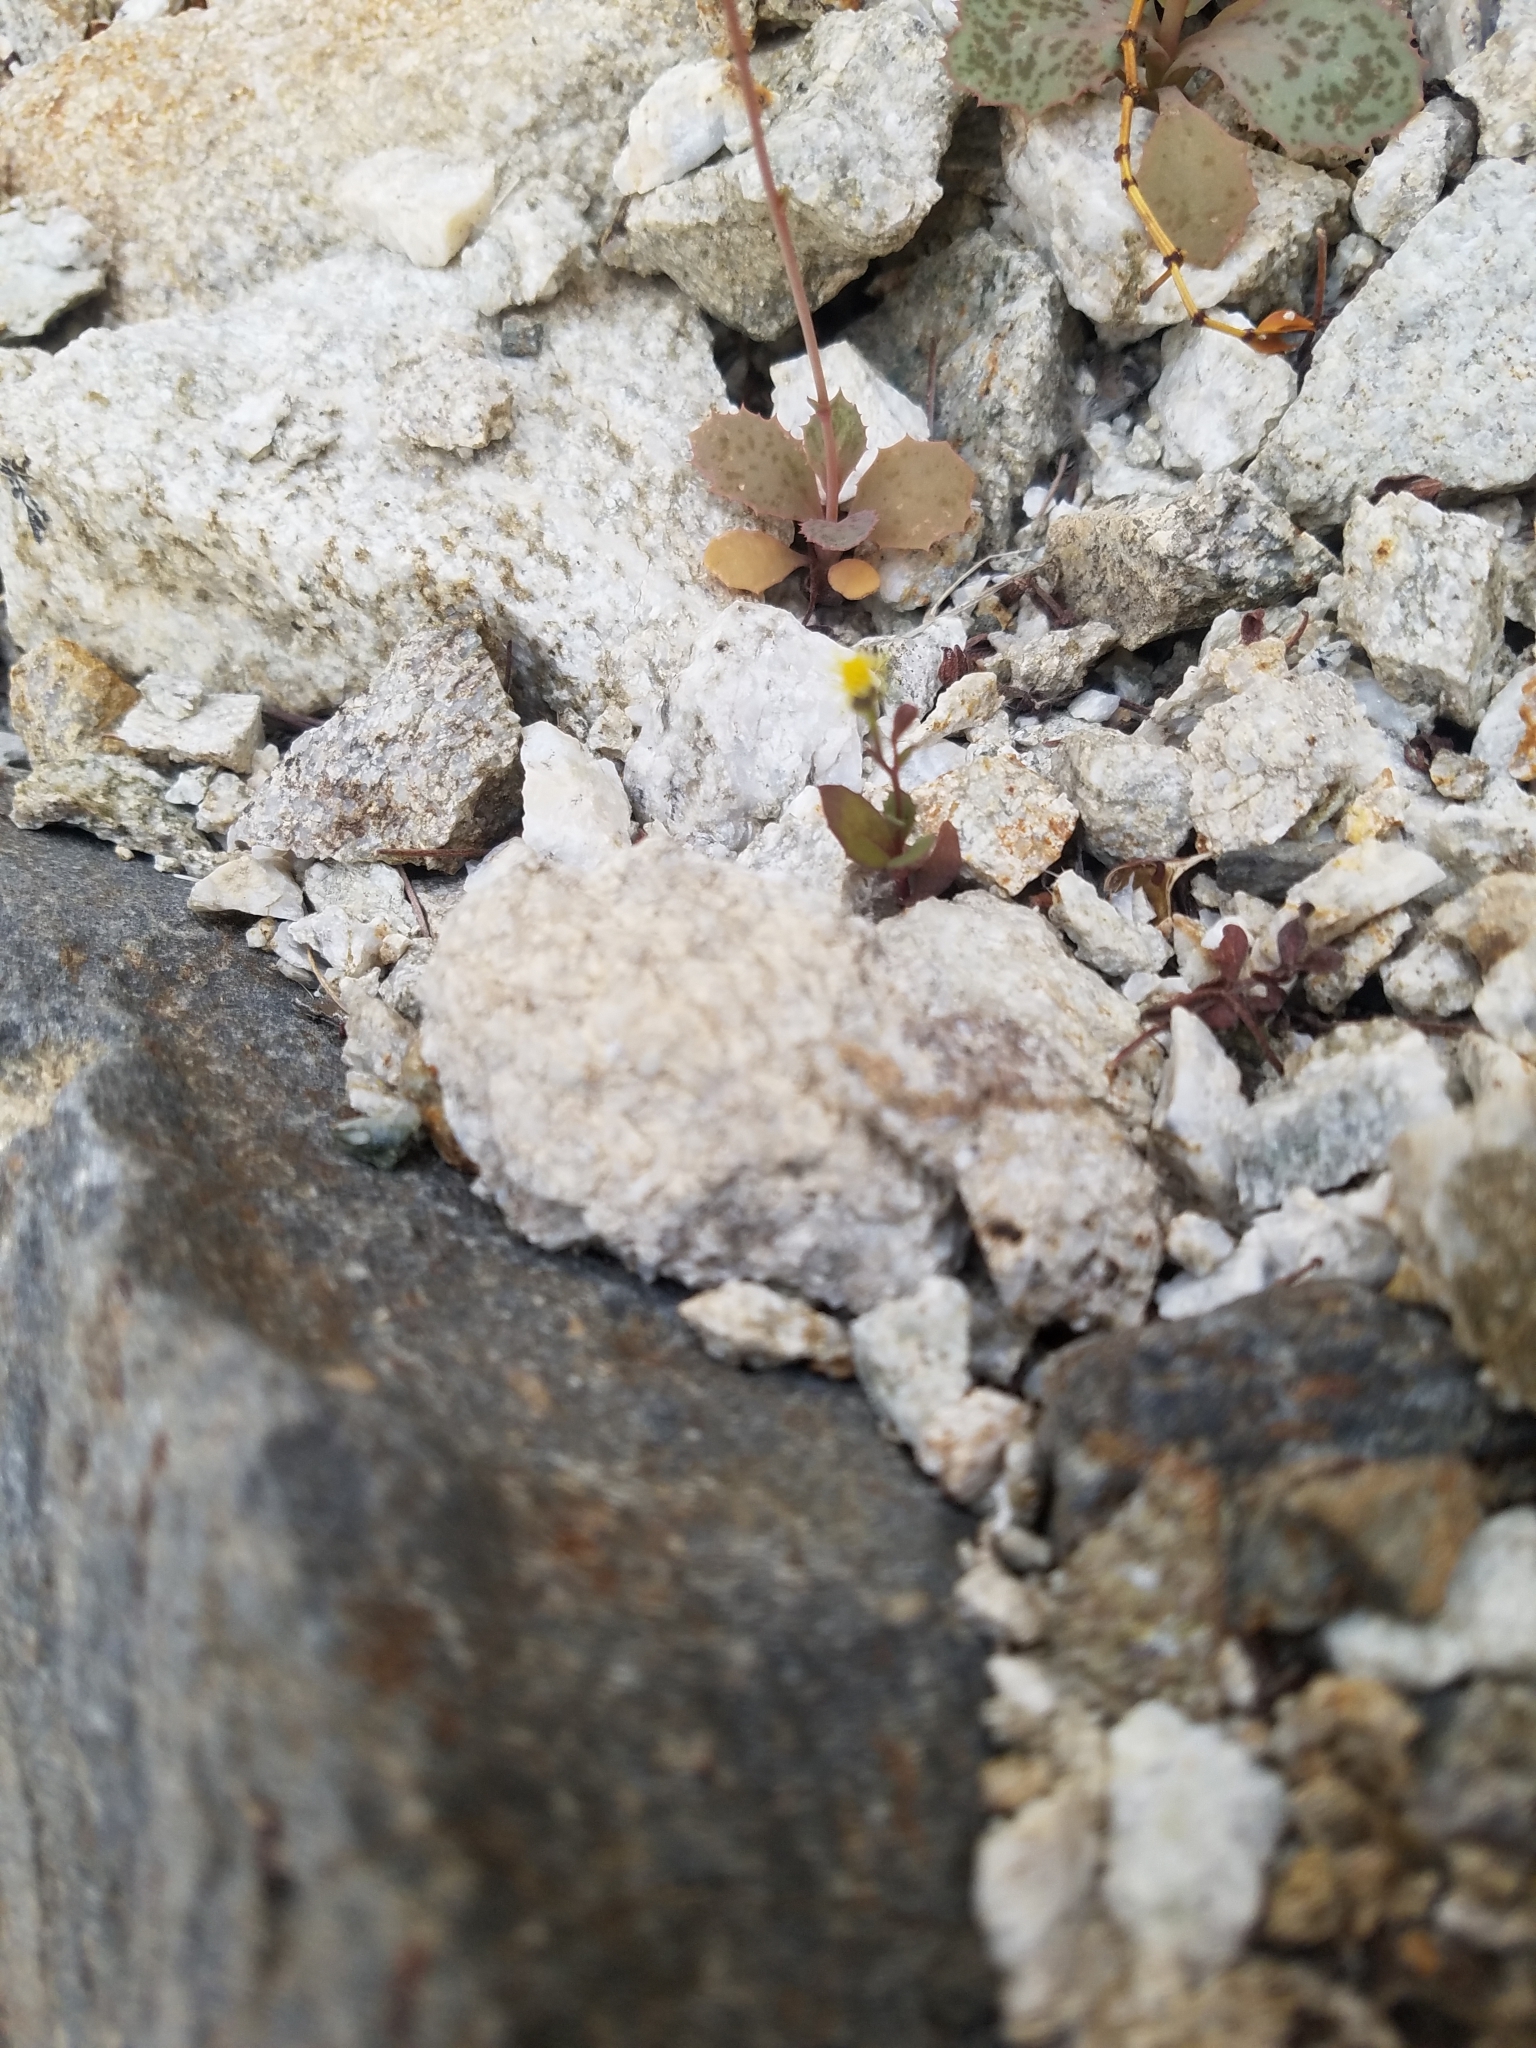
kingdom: Plantae
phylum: Tracheophyta
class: Magnoliopsida
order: Asterales
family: Asteraceae
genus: Senecio
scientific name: Senecio mohavensis
